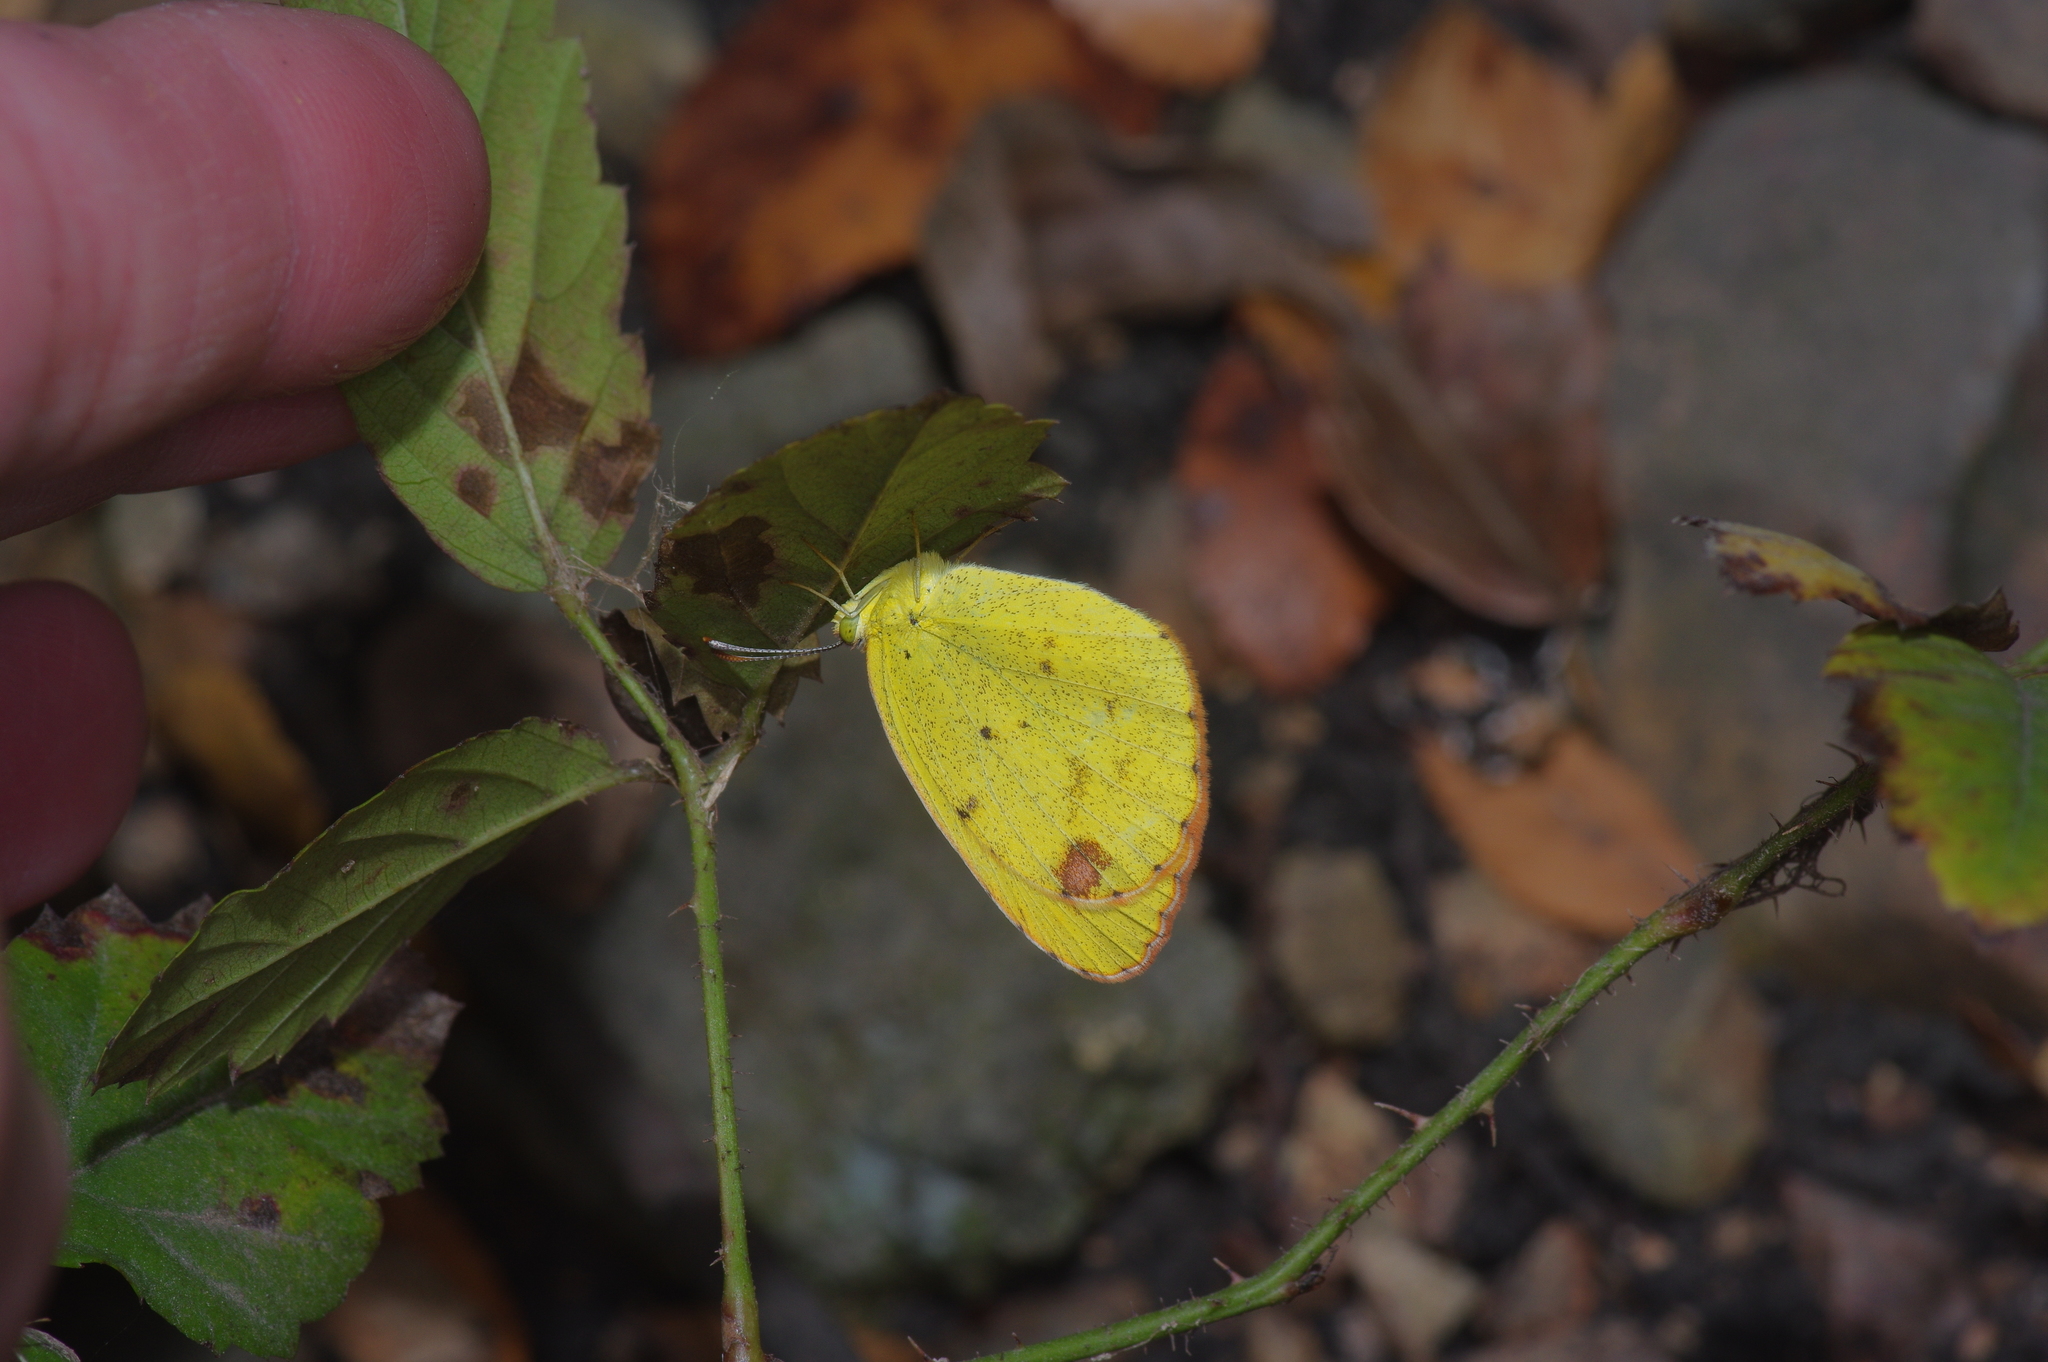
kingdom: Animalia
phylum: Arthropoda
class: Insecta
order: Lepidoptera
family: Pieridae
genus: Pyrisitia
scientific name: Pyrisitia lisa
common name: Little yellow
